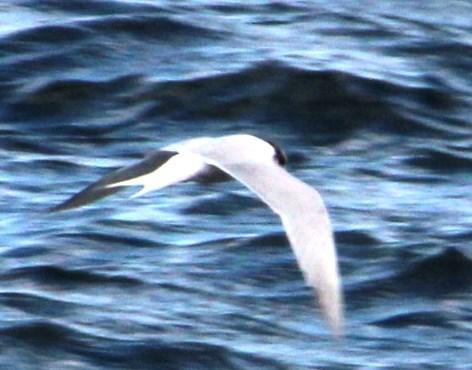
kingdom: Animalia
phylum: Chordata
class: Aves
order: Charadriiformes
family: Laridae
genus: Sterna
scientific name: Sterna hirundinacea
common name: South american tern
